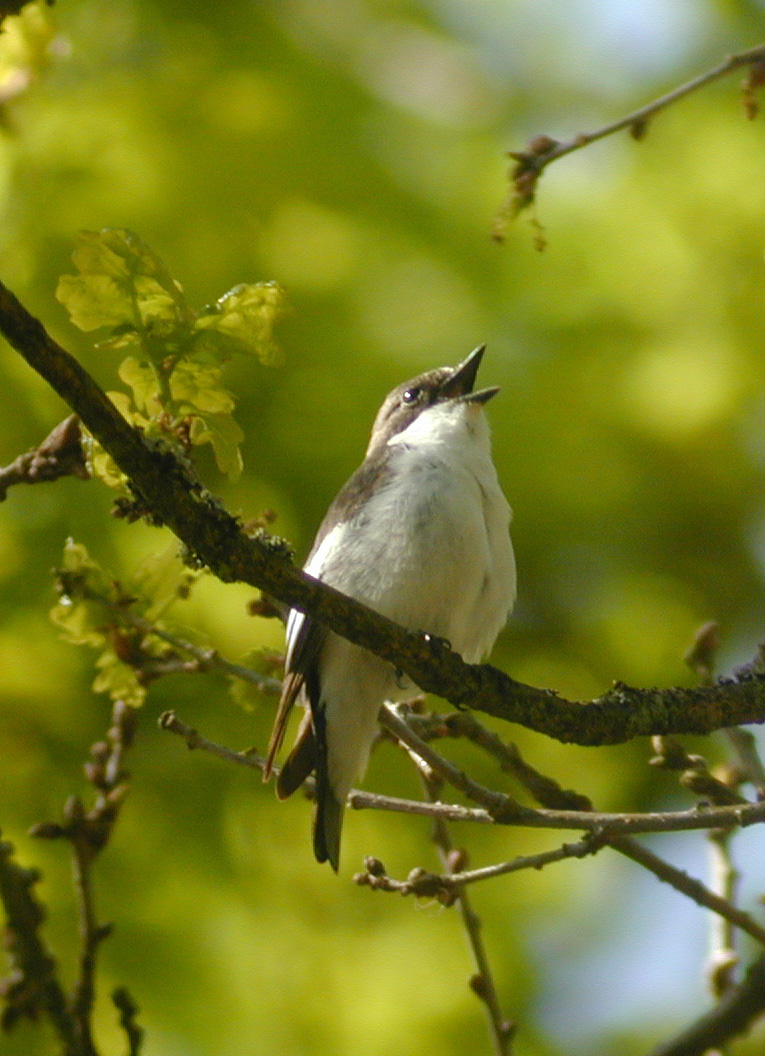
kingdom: Animalia
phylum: Chordata
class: Aves
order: Passeriformes
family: Muscicapidae
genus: Ficedula
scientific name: Ficedula hypoleuca
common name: European pied flycatcher
